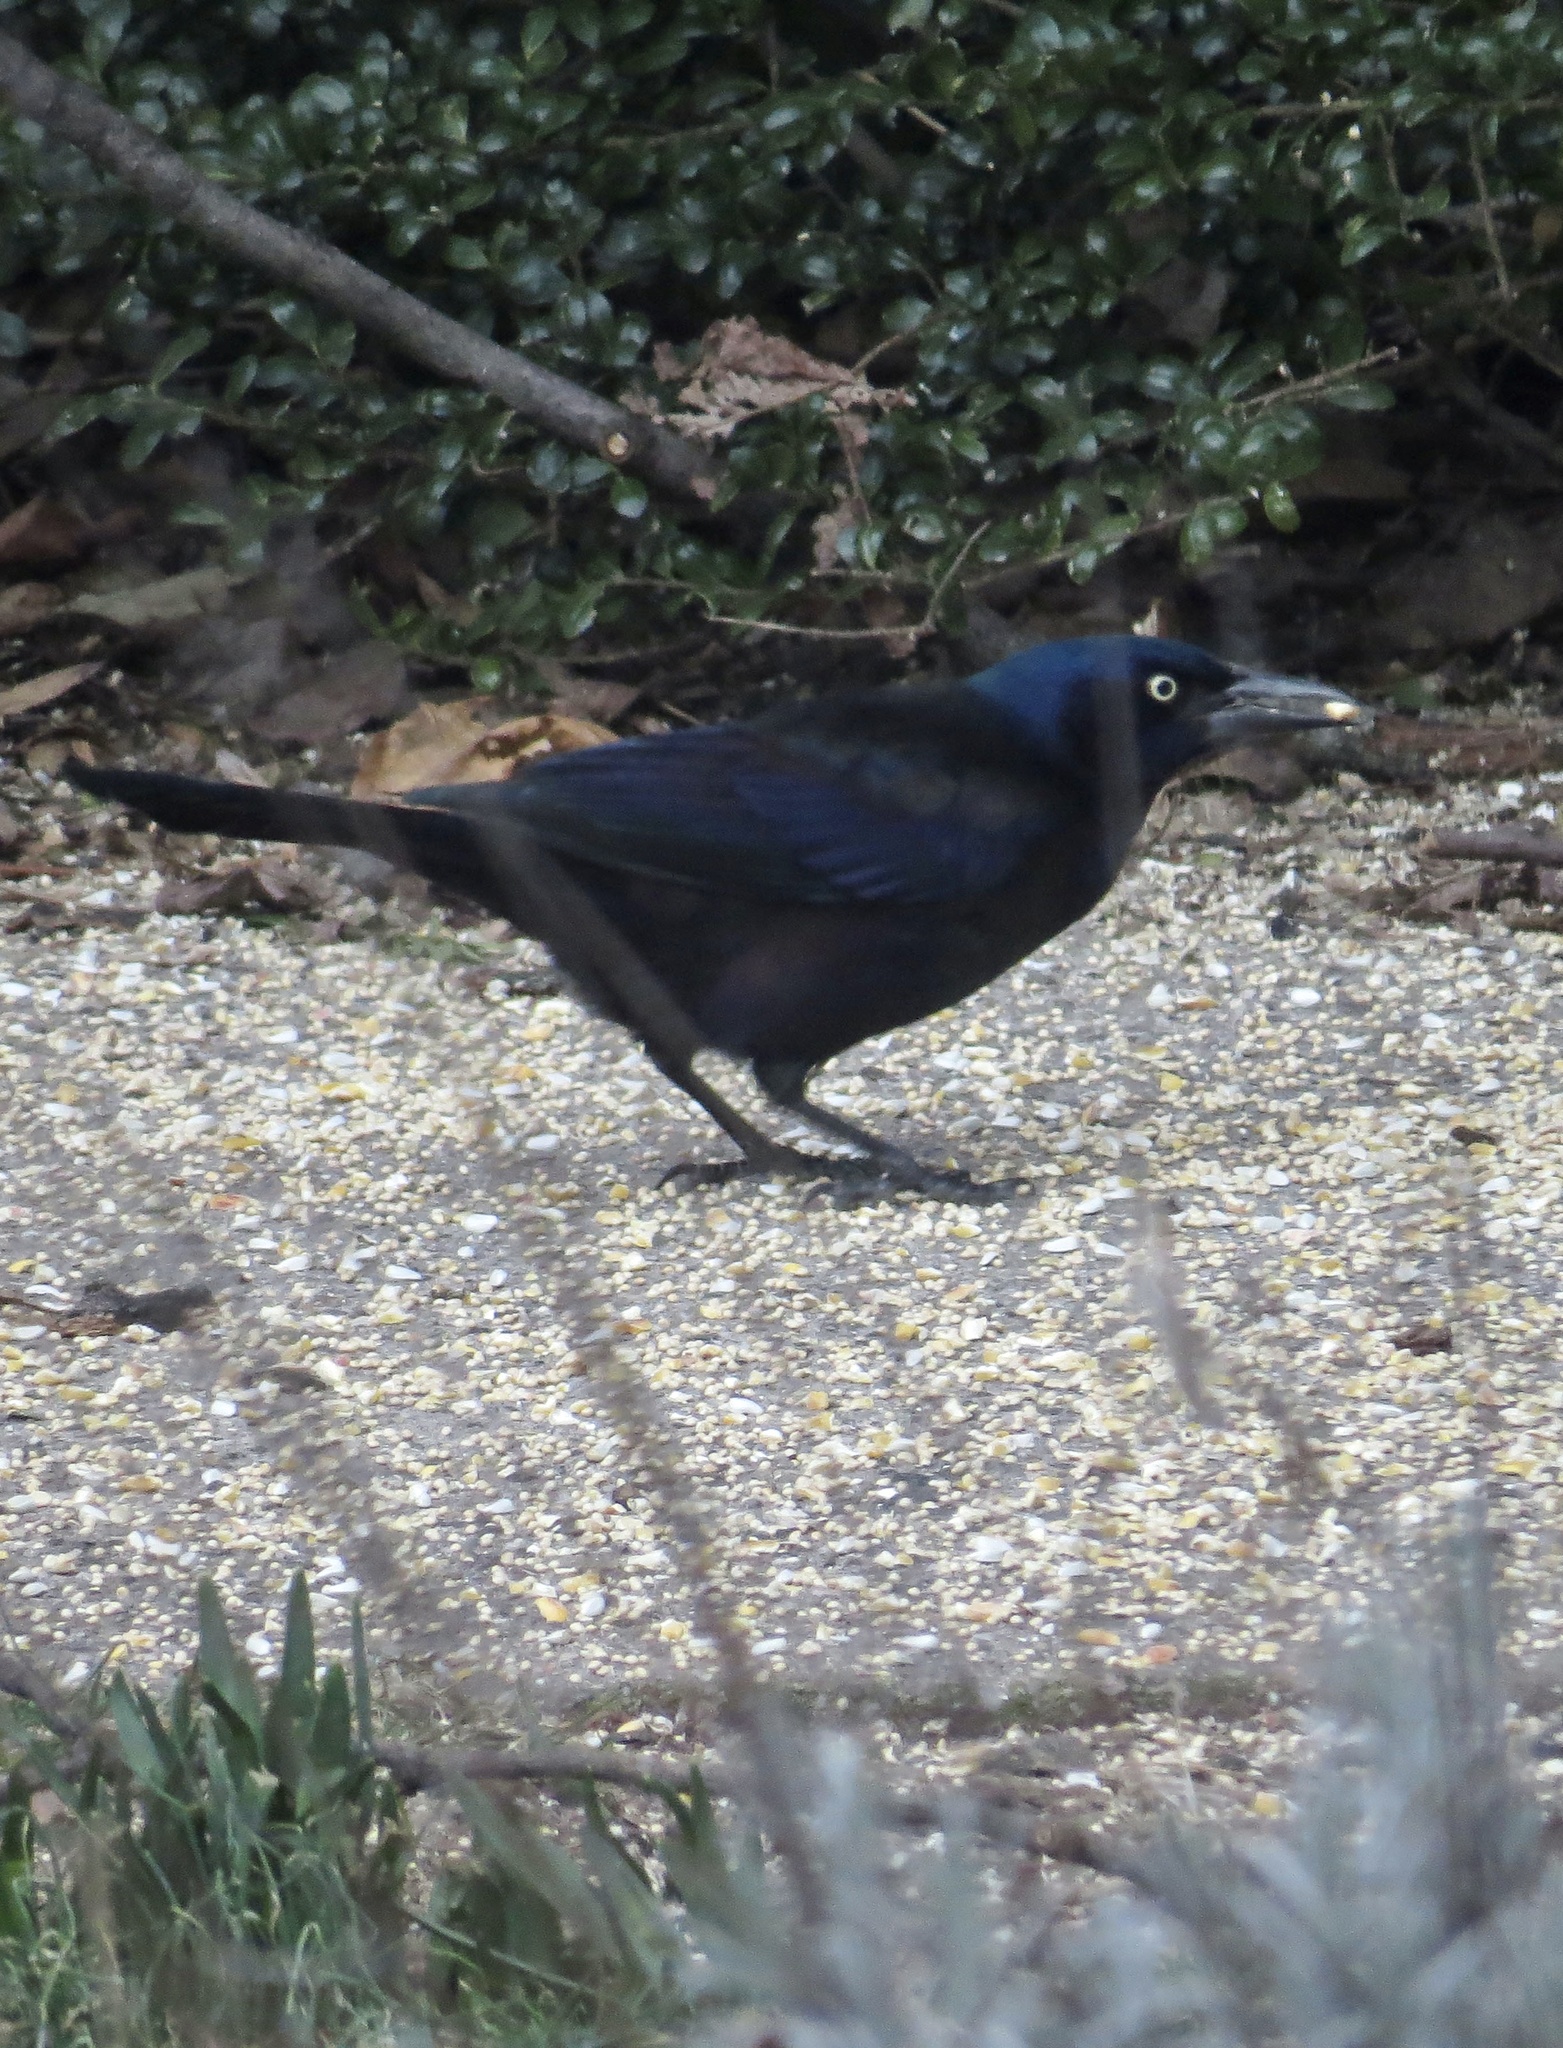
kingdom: Animalia
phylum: Chordata
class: Aves
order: Passeriformes
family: Icteridae
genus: Quiscalus
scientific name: Quiscalus quiscula
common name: Common grackle
